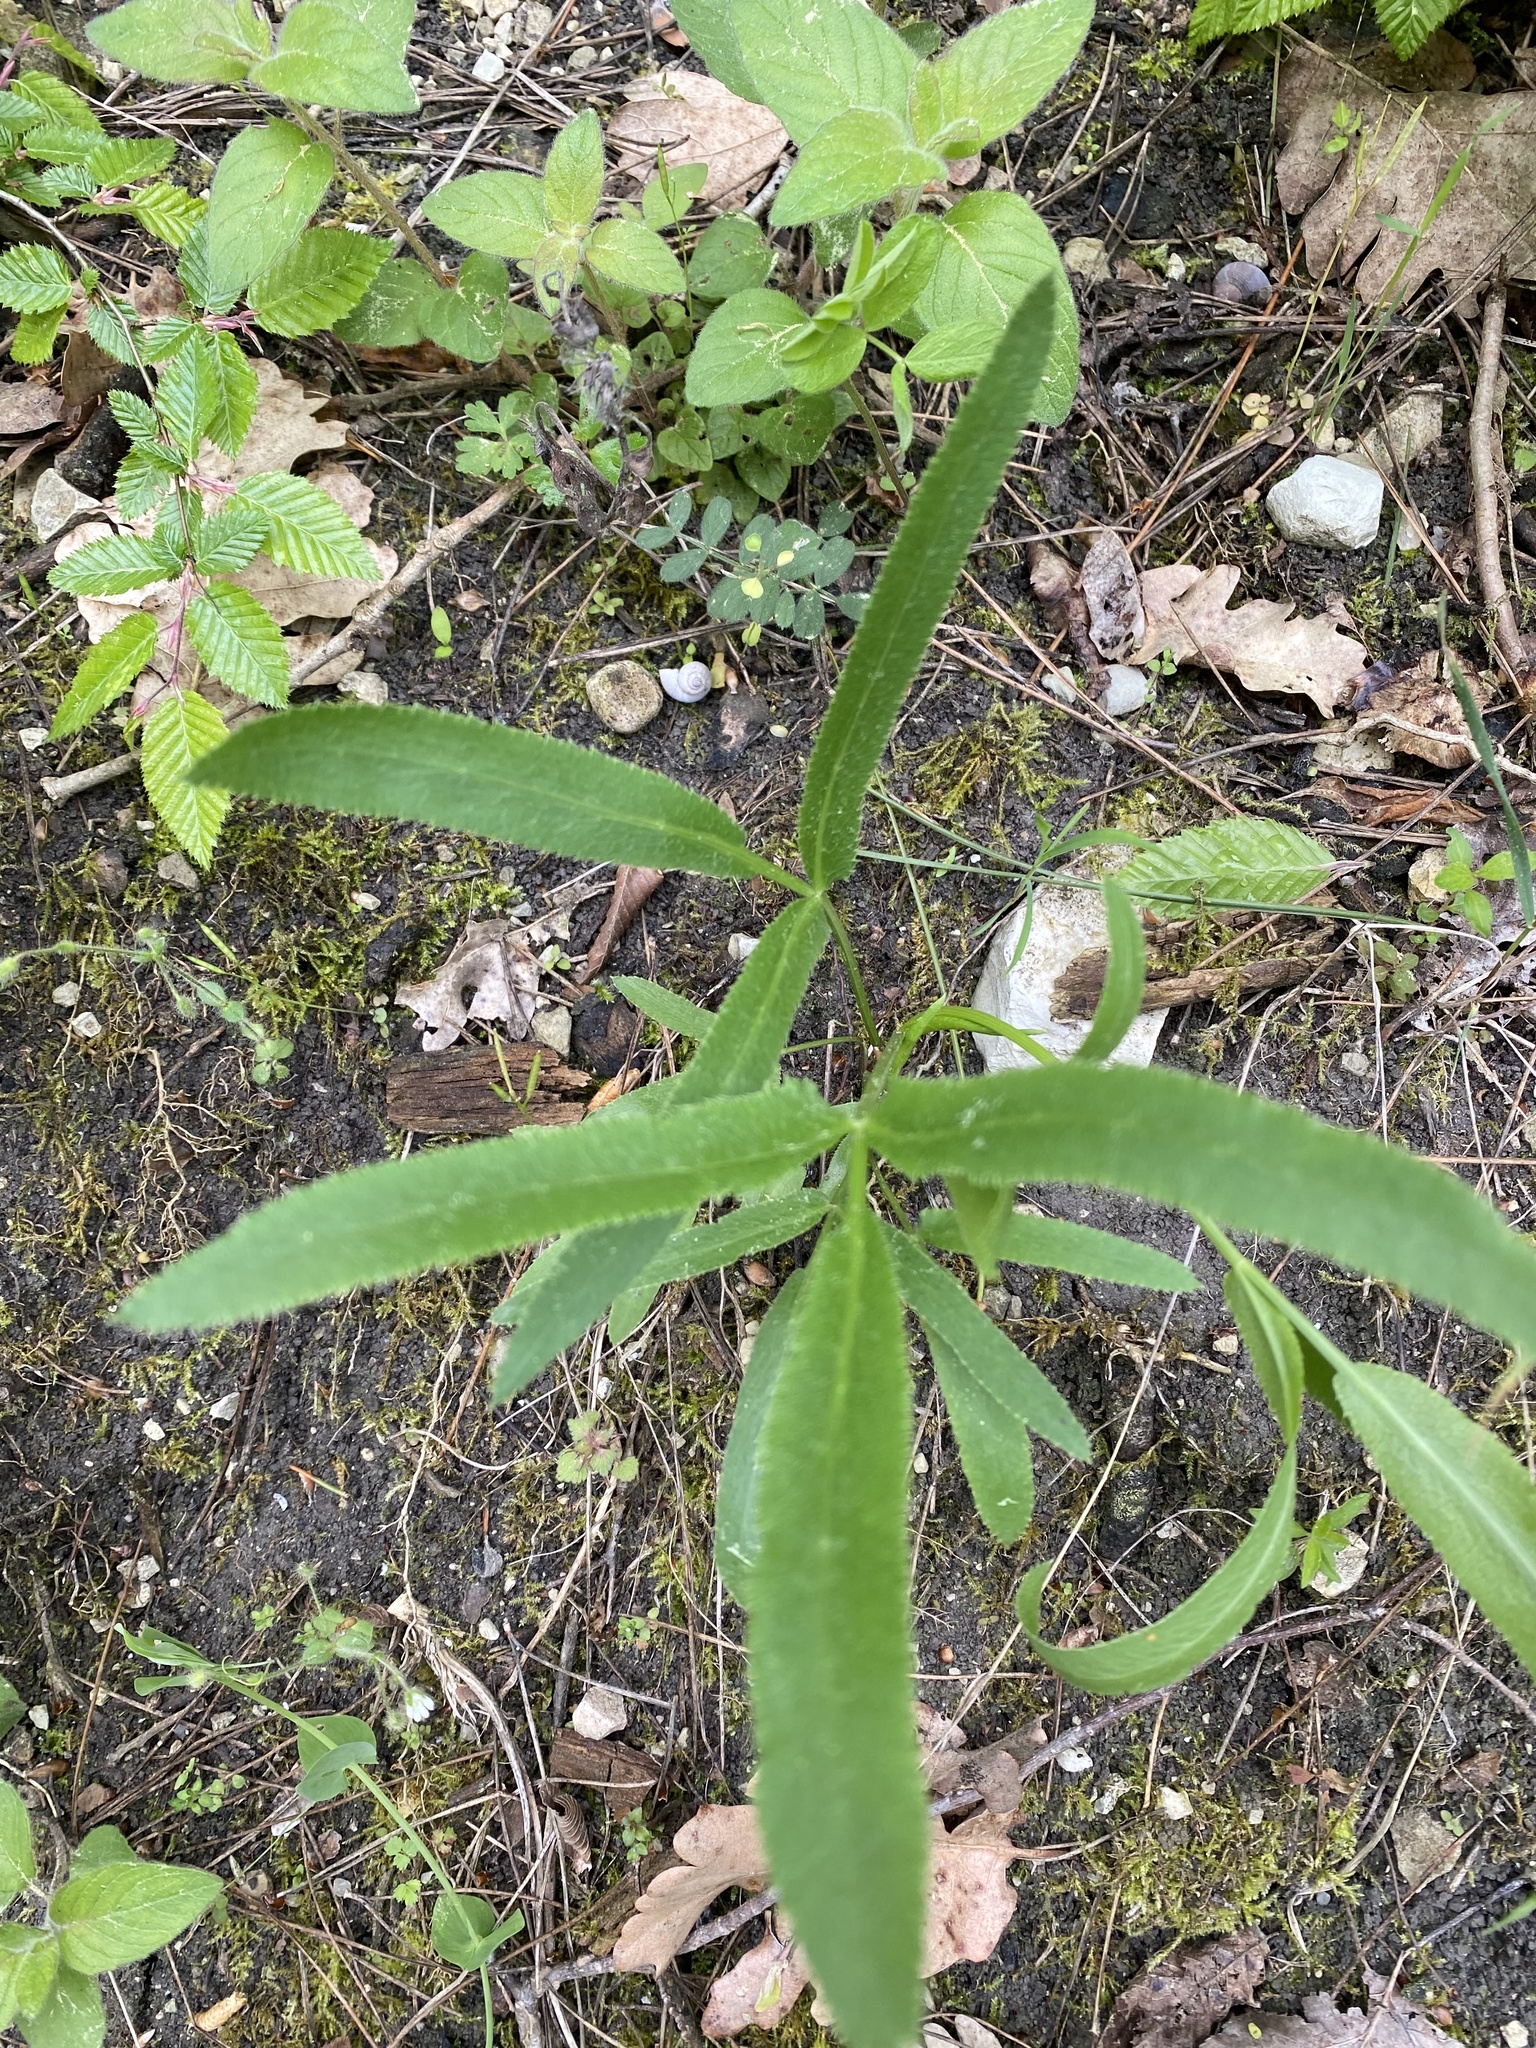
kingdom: Plantae
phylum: Tracheophyta
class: Magnoliopsida
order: Apiales
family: Apiaceae
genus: Falcaria
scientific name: Falcaria vulgaris
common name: Longleaf
